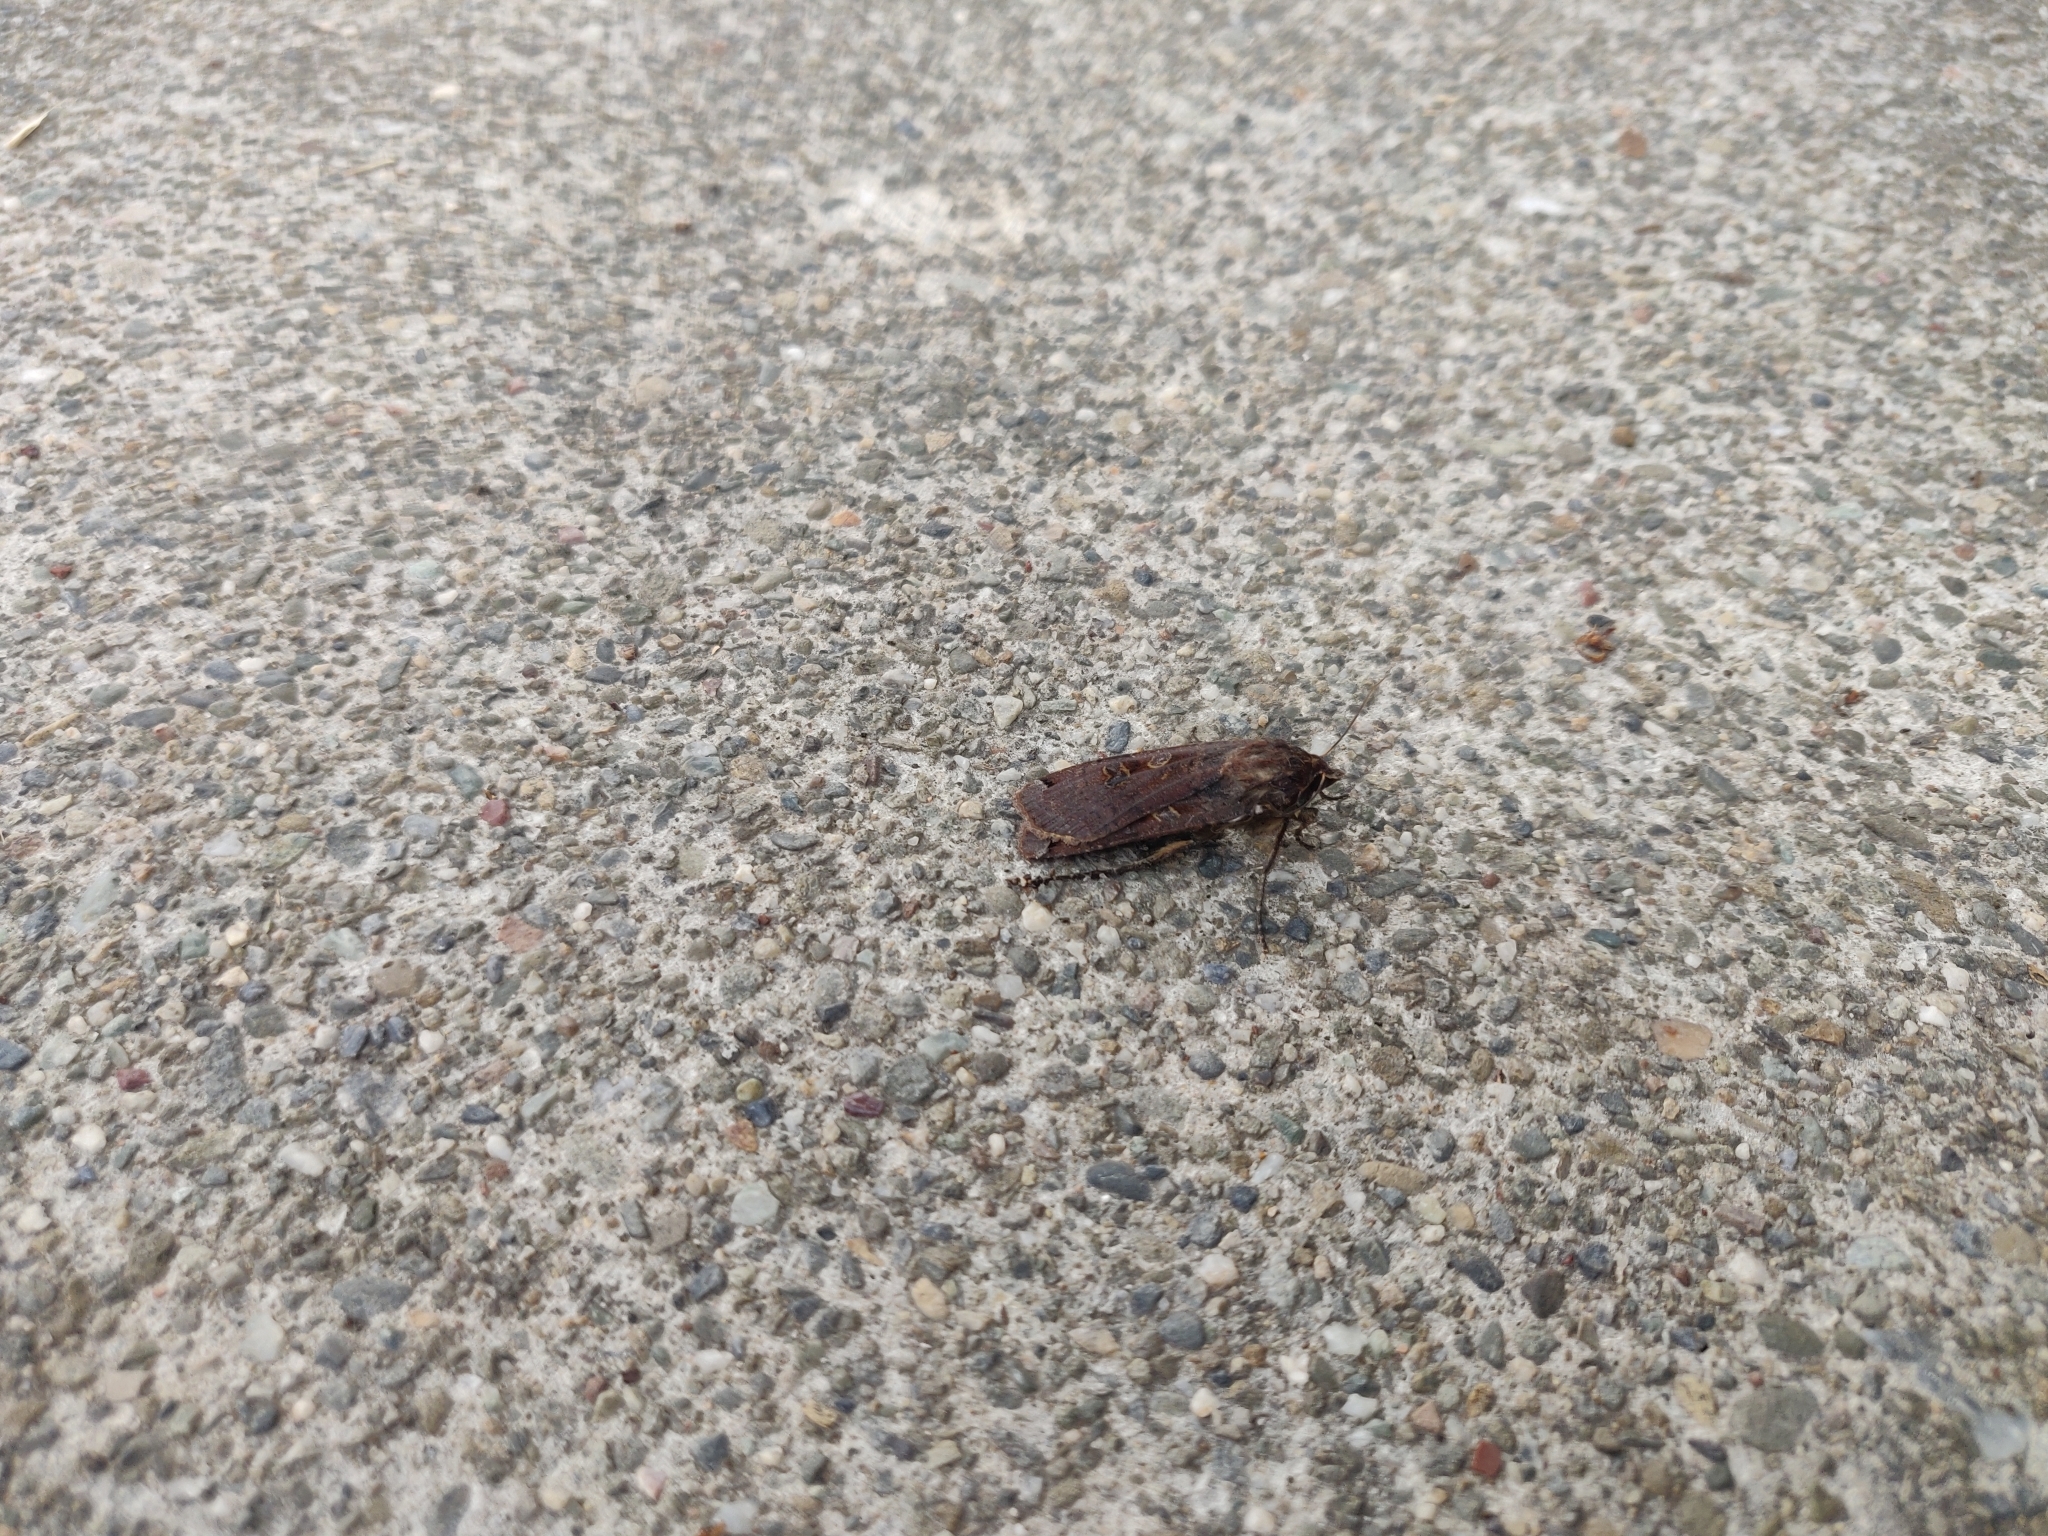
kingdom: Animalia
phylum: Arthropoda
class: Insecta
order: Lepidoptera
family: Noctuidae
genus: Noctua
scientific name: Noctua pronuba
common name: Large yellow underwing
